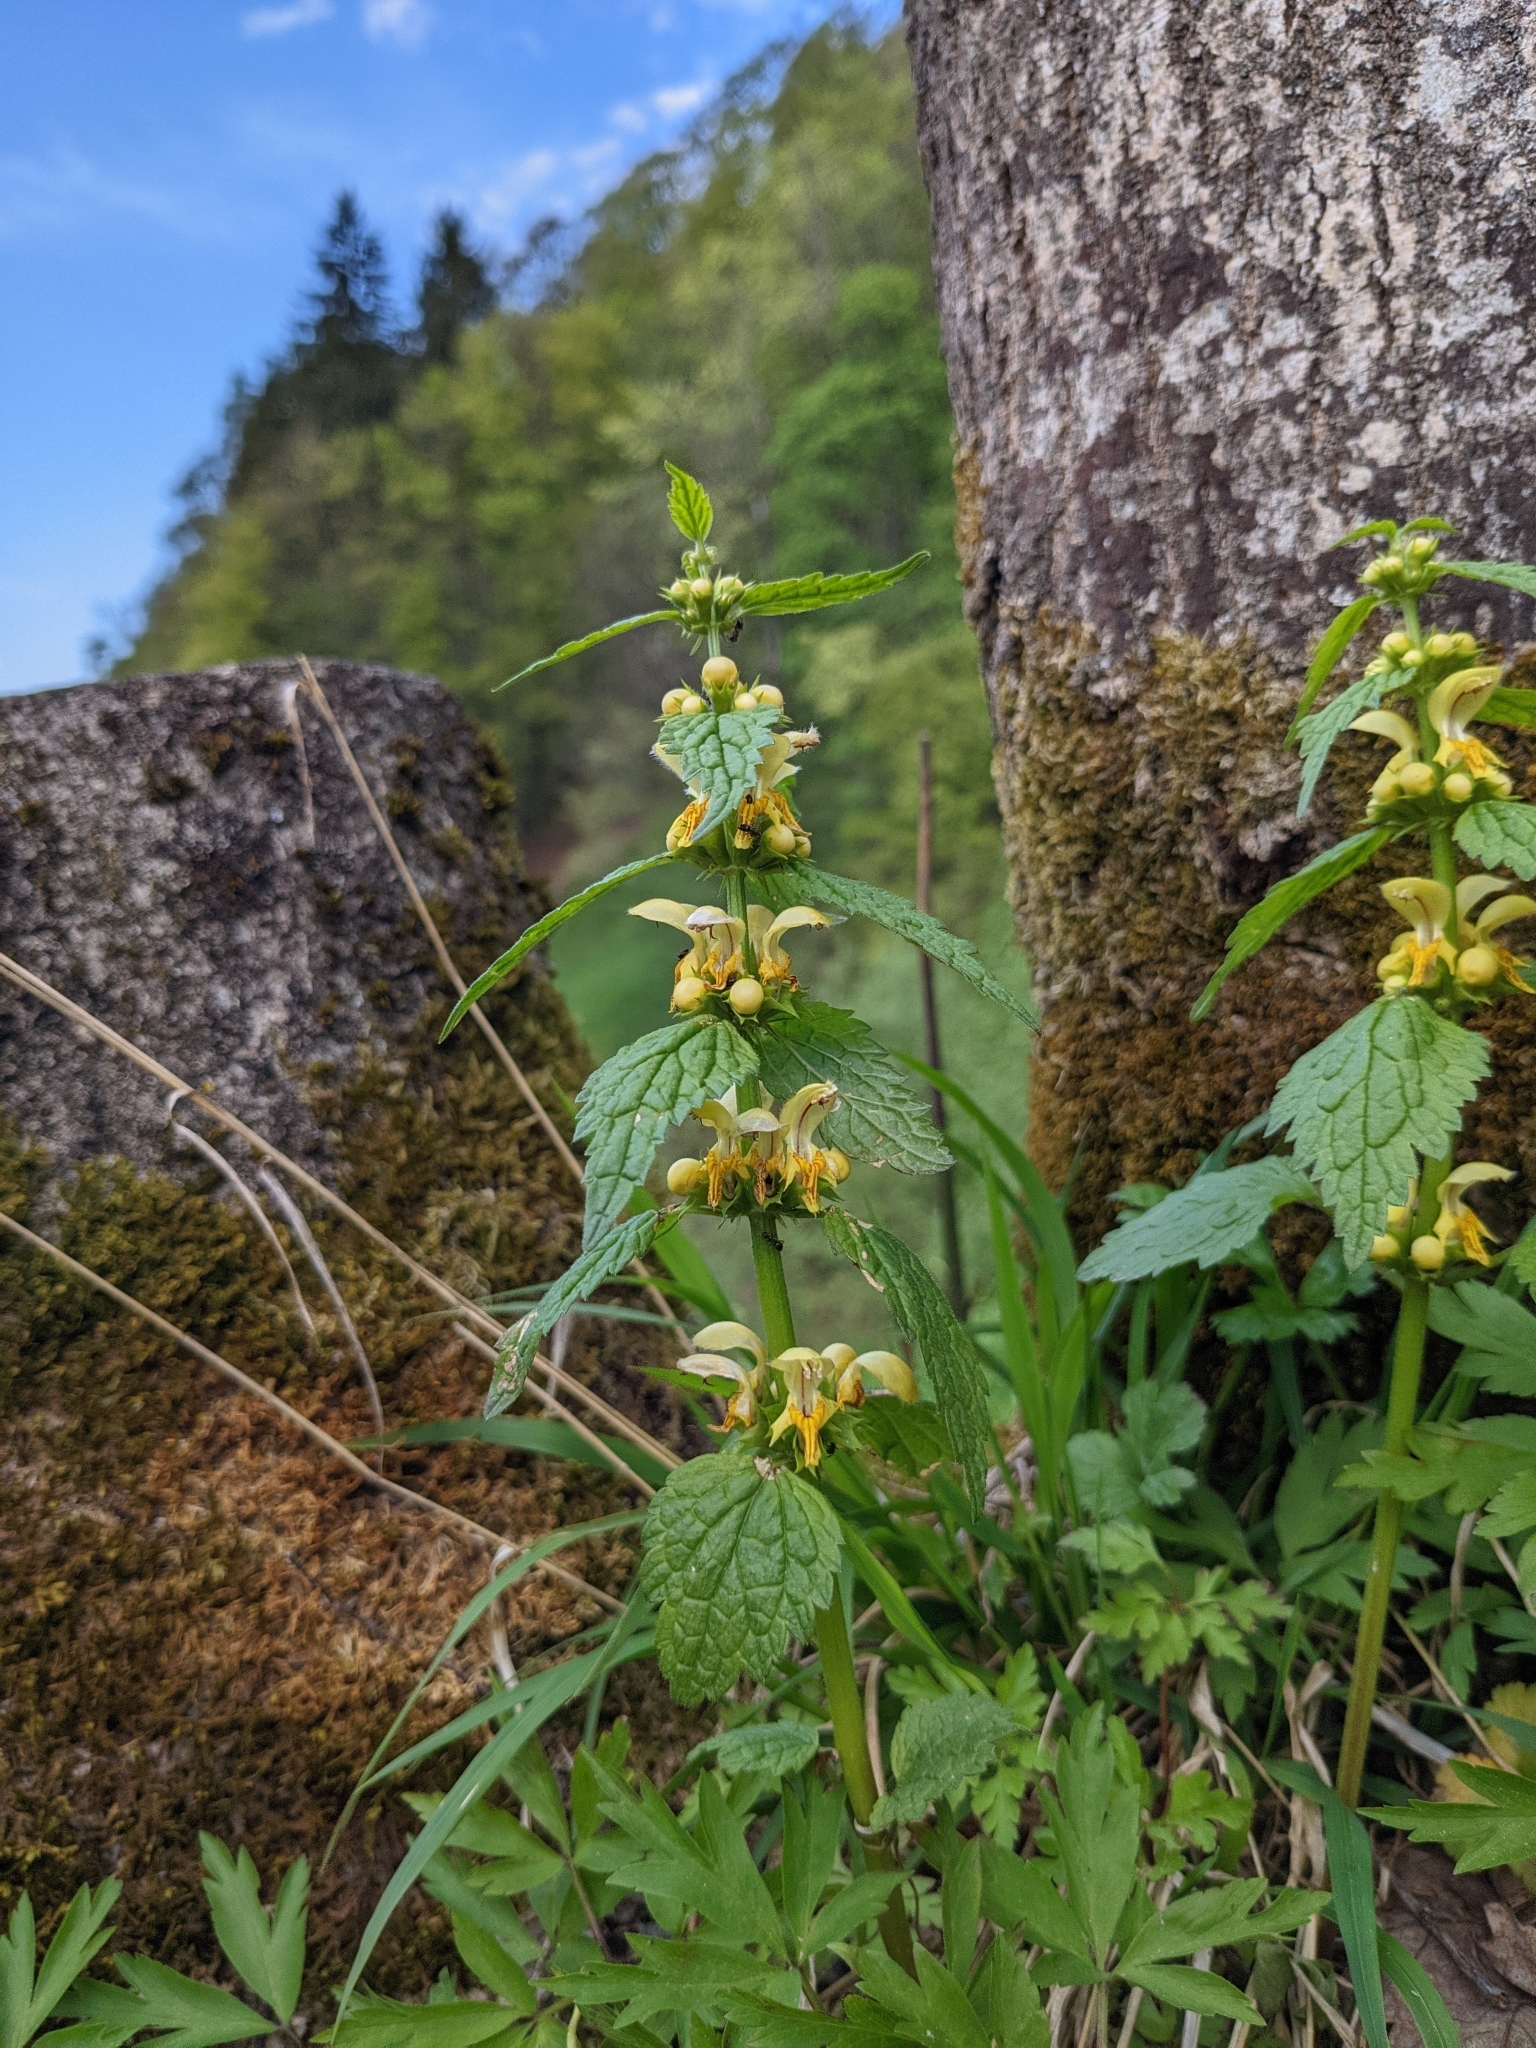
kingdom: Plantae
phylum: Tracheophyta
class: Magnoliopsida
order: Lamiales
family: Lamiaceae
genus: Lamium
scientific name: Lamium galeobdolon
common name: Yellow archangel
